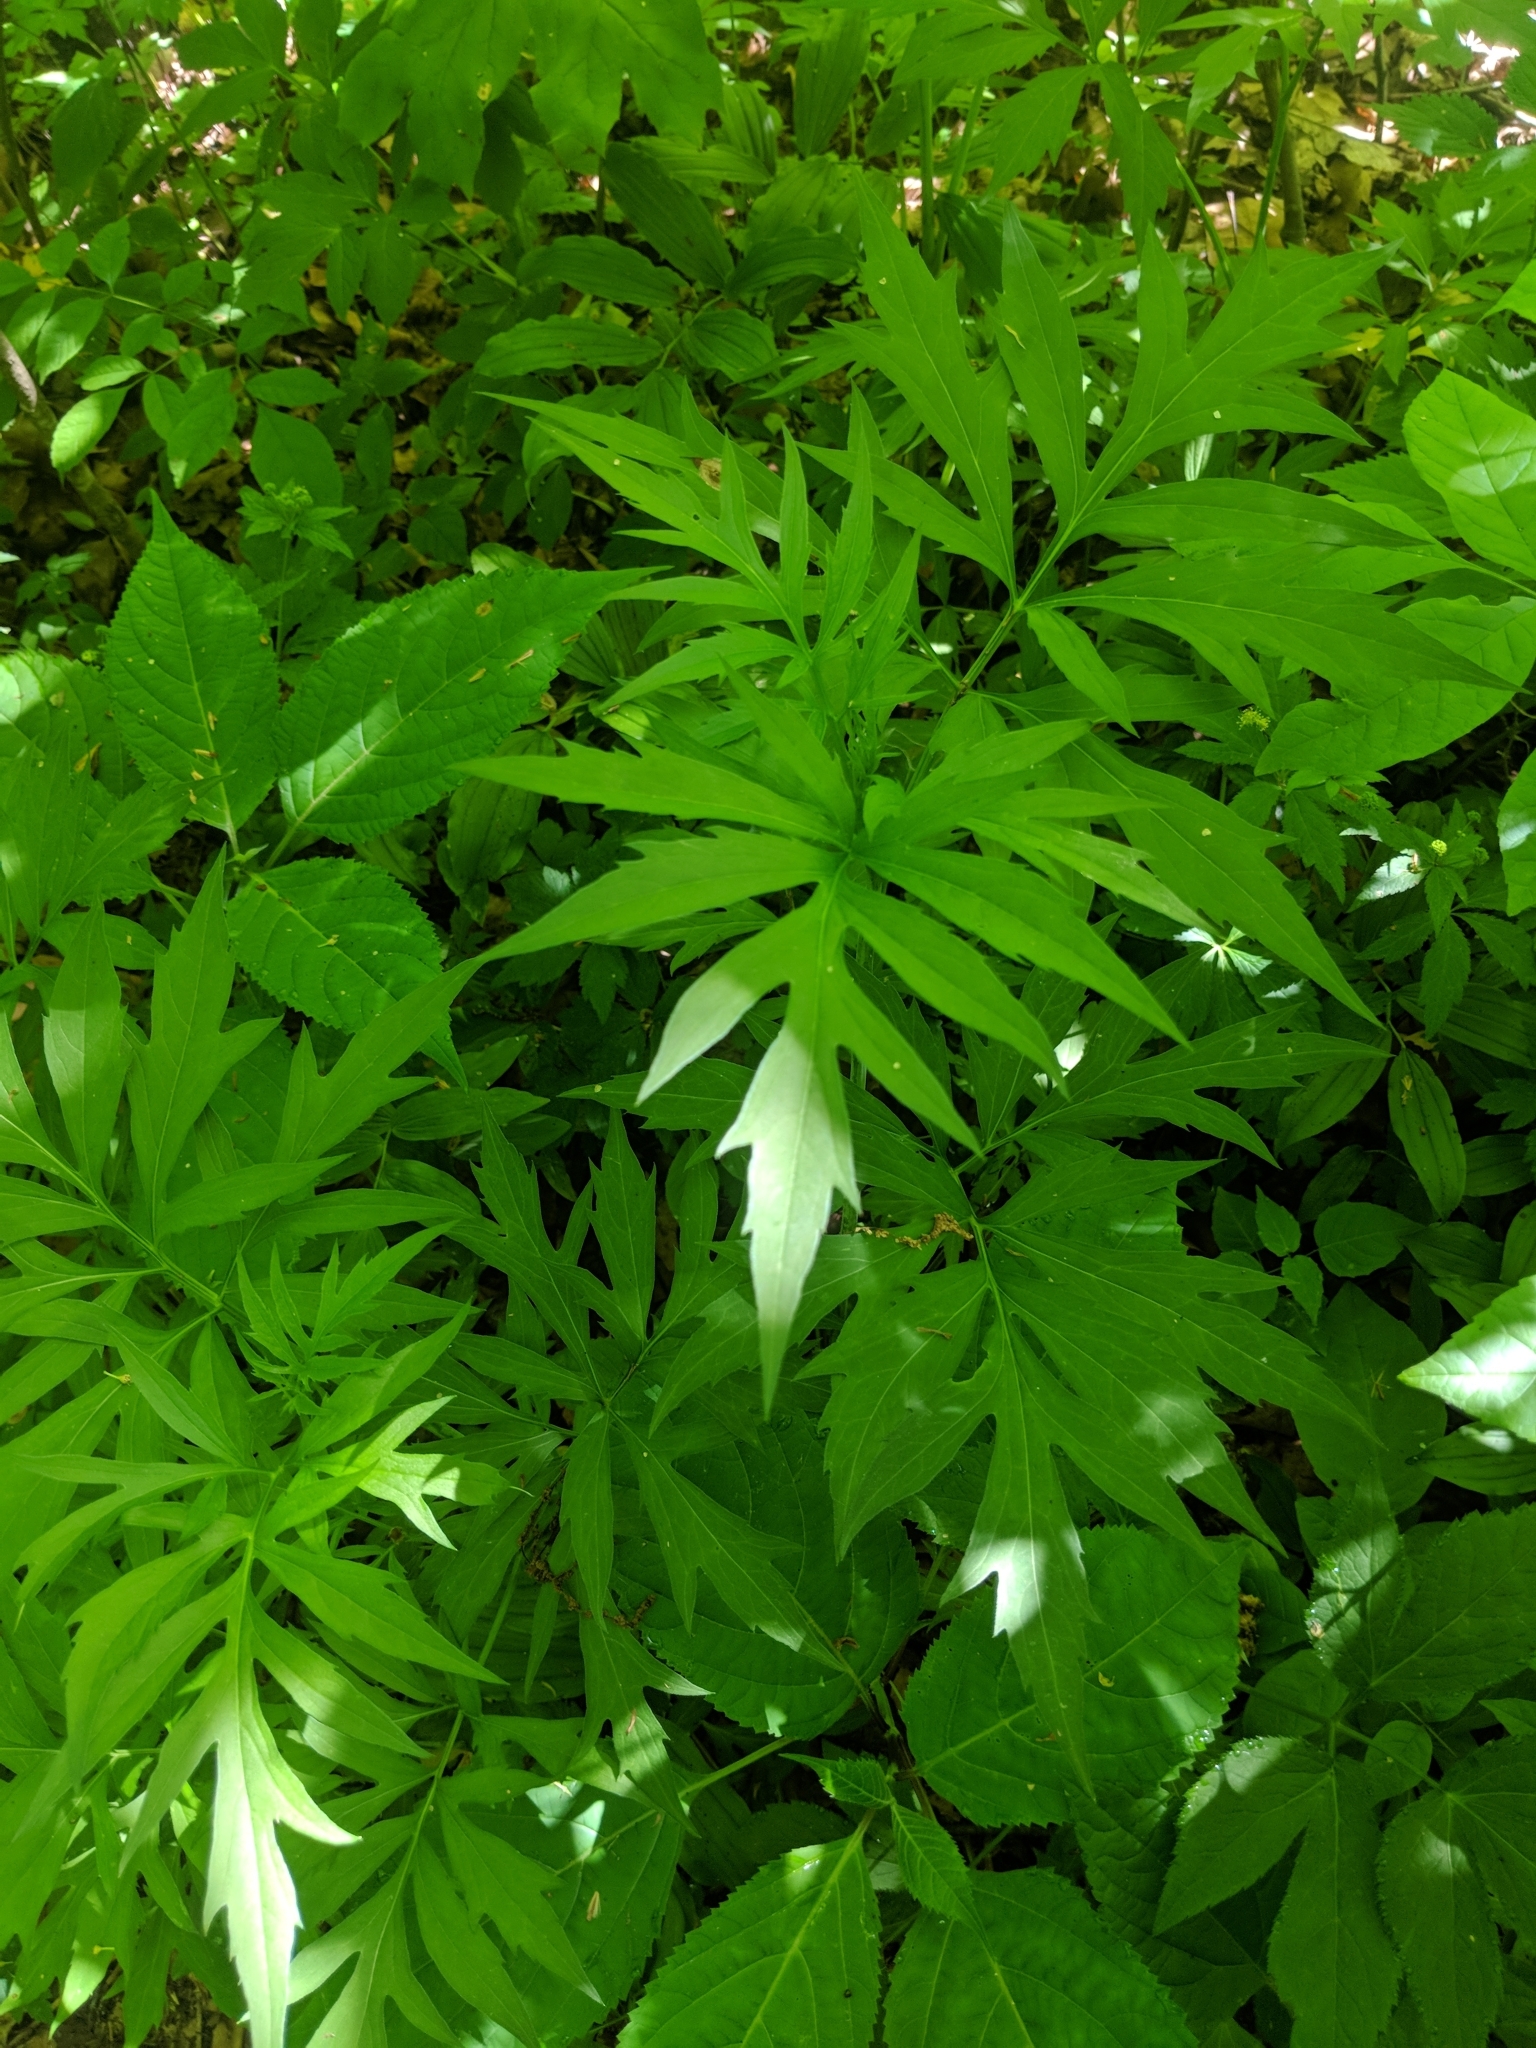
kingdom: Plantae
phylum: Tracheophyta
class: Magnoliopsida
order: Asterales
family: Asteraceae
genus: Rudbeckia
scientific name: Rudbeckia laciniata
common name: Coneflower
